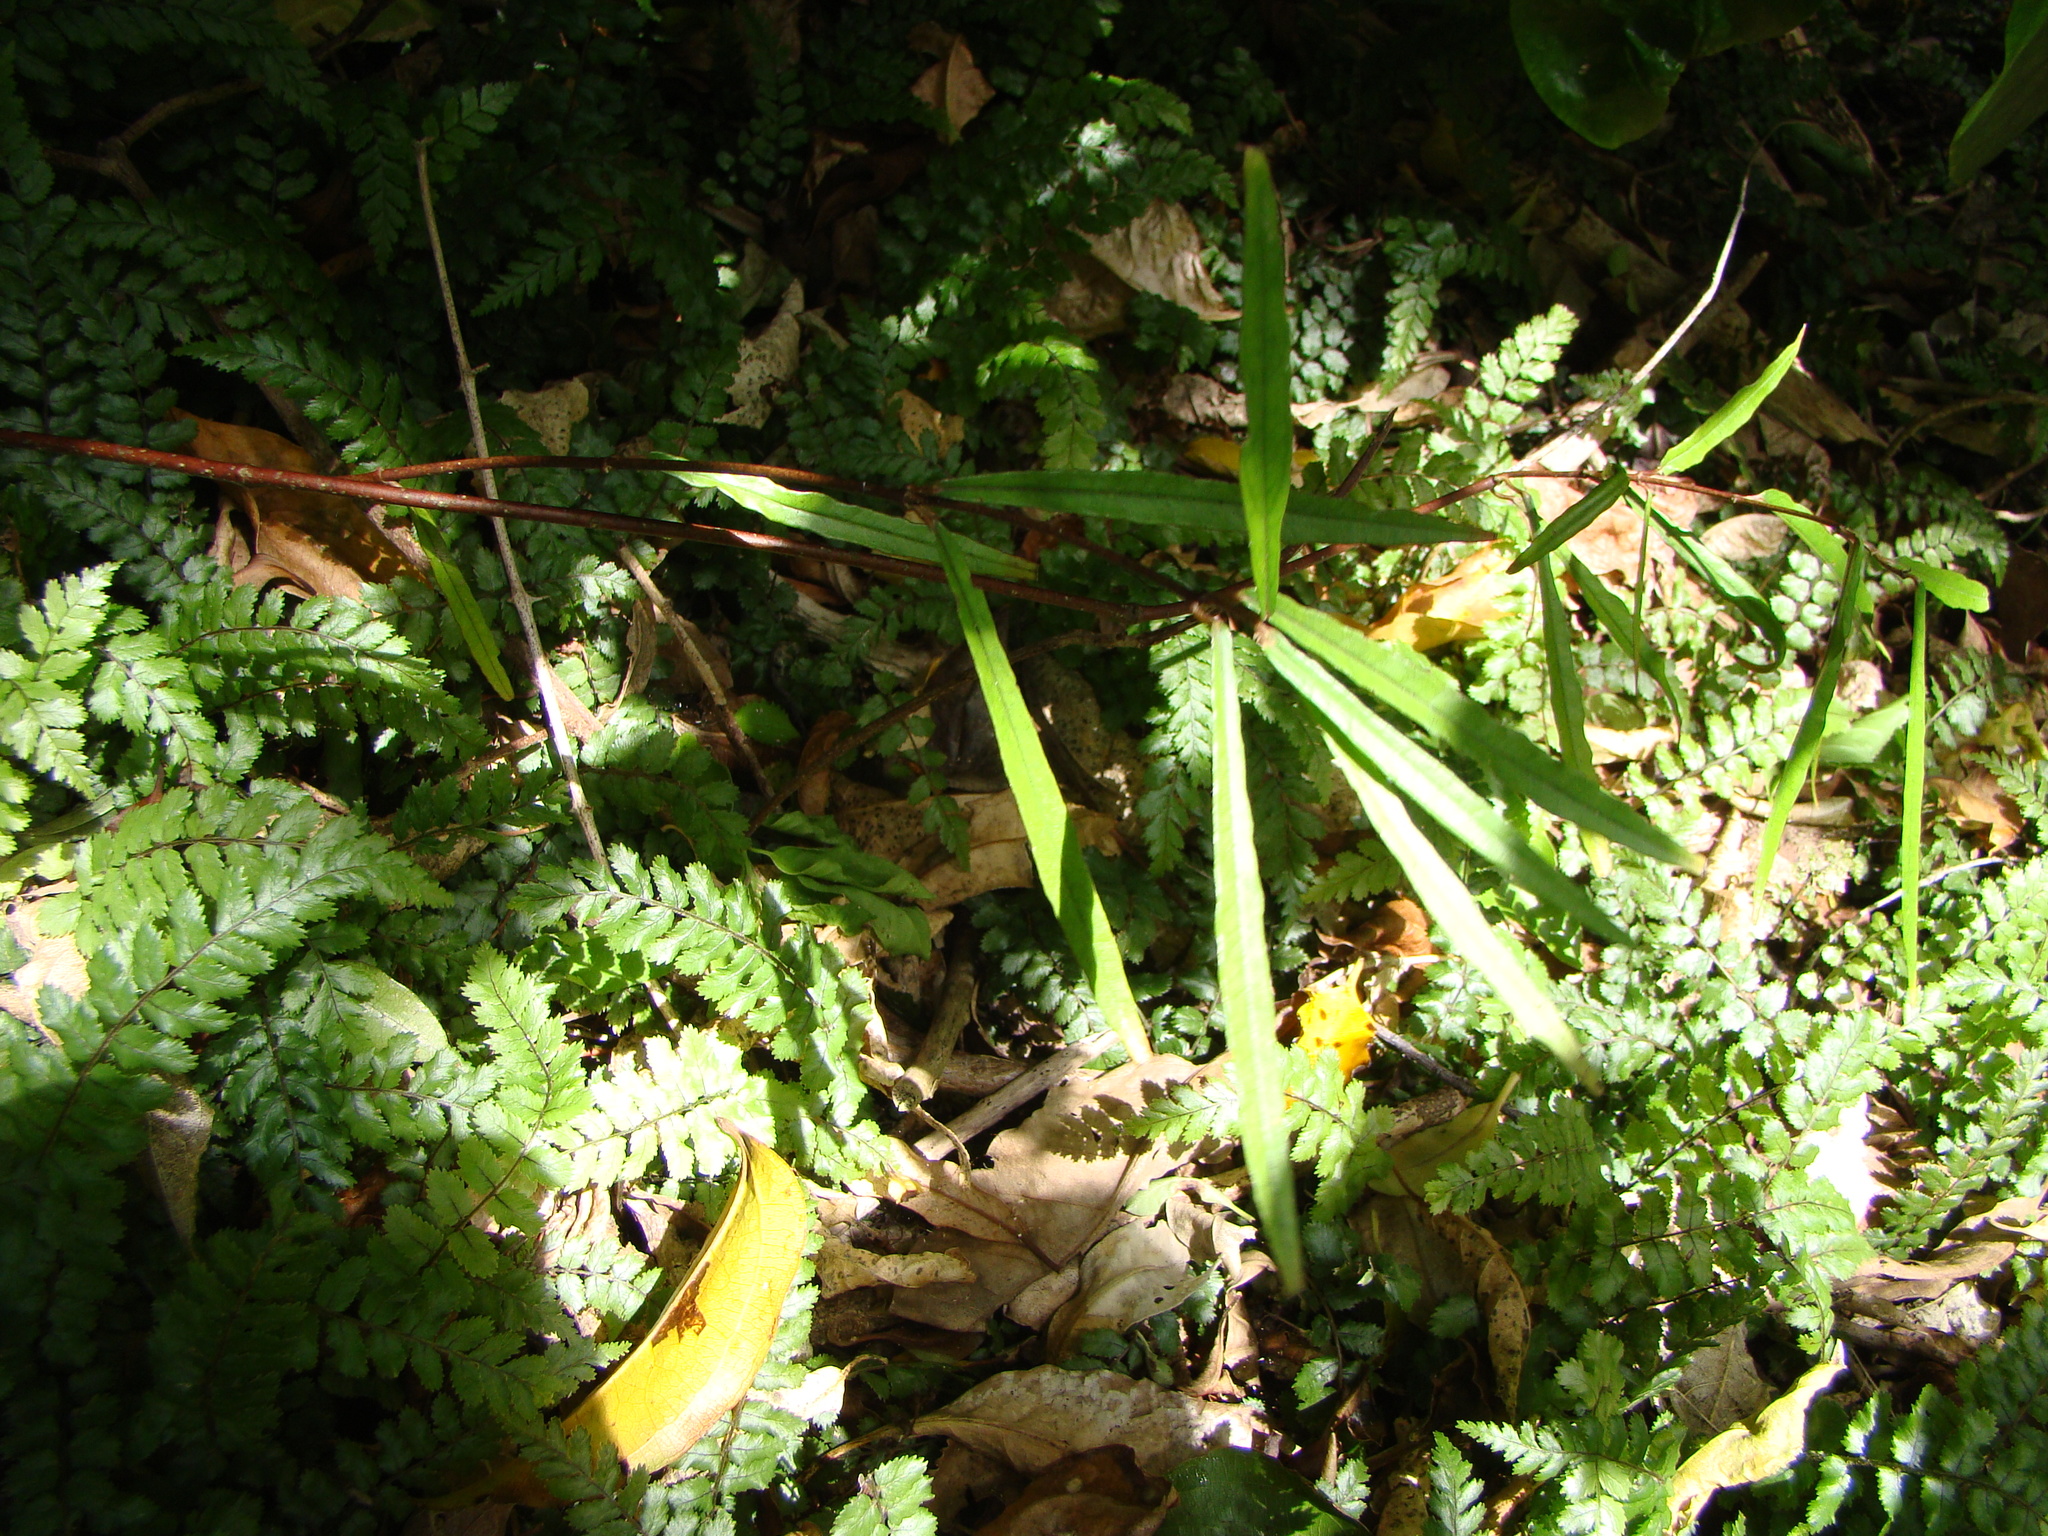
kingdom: Plantae
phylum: Tracheophyta
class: Magnoliopsida
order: Gentianales
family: Apocynaceae
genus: Parsonsia
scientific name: Parsonsia heterophylla
